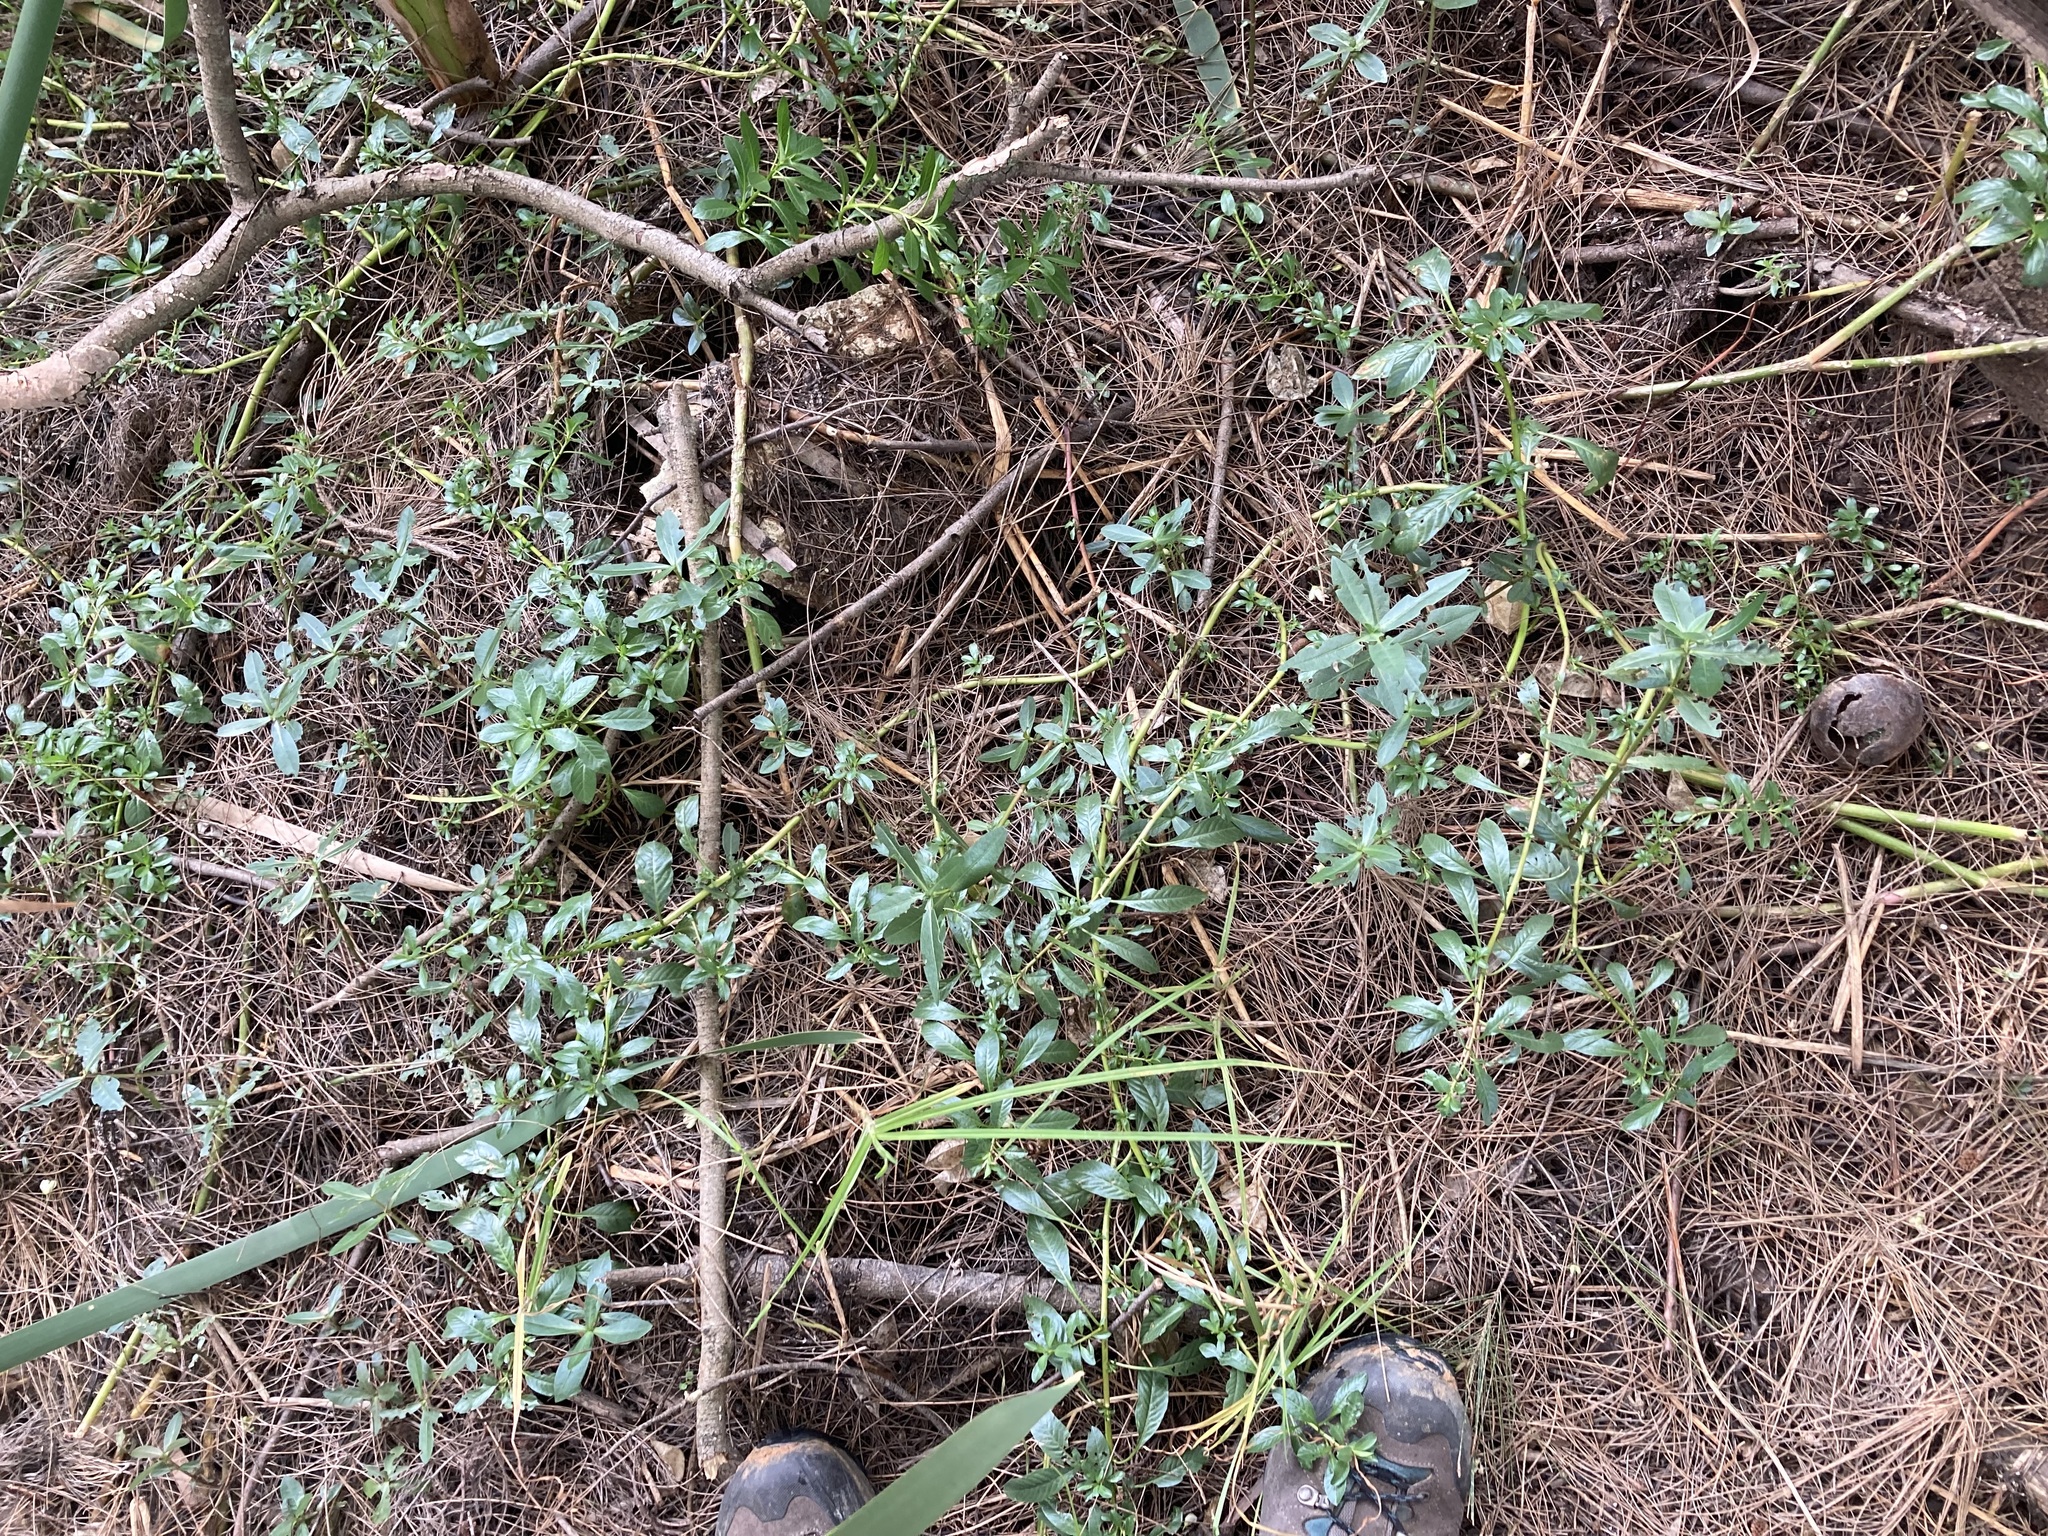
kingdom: Plantae
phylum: Tracheophyta
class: Magnoliopsida
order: Caryophyllales
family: Amaranthaceae
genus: Alternanthera
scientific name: Alternanthera philoxeroides
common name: Alligatorweed
